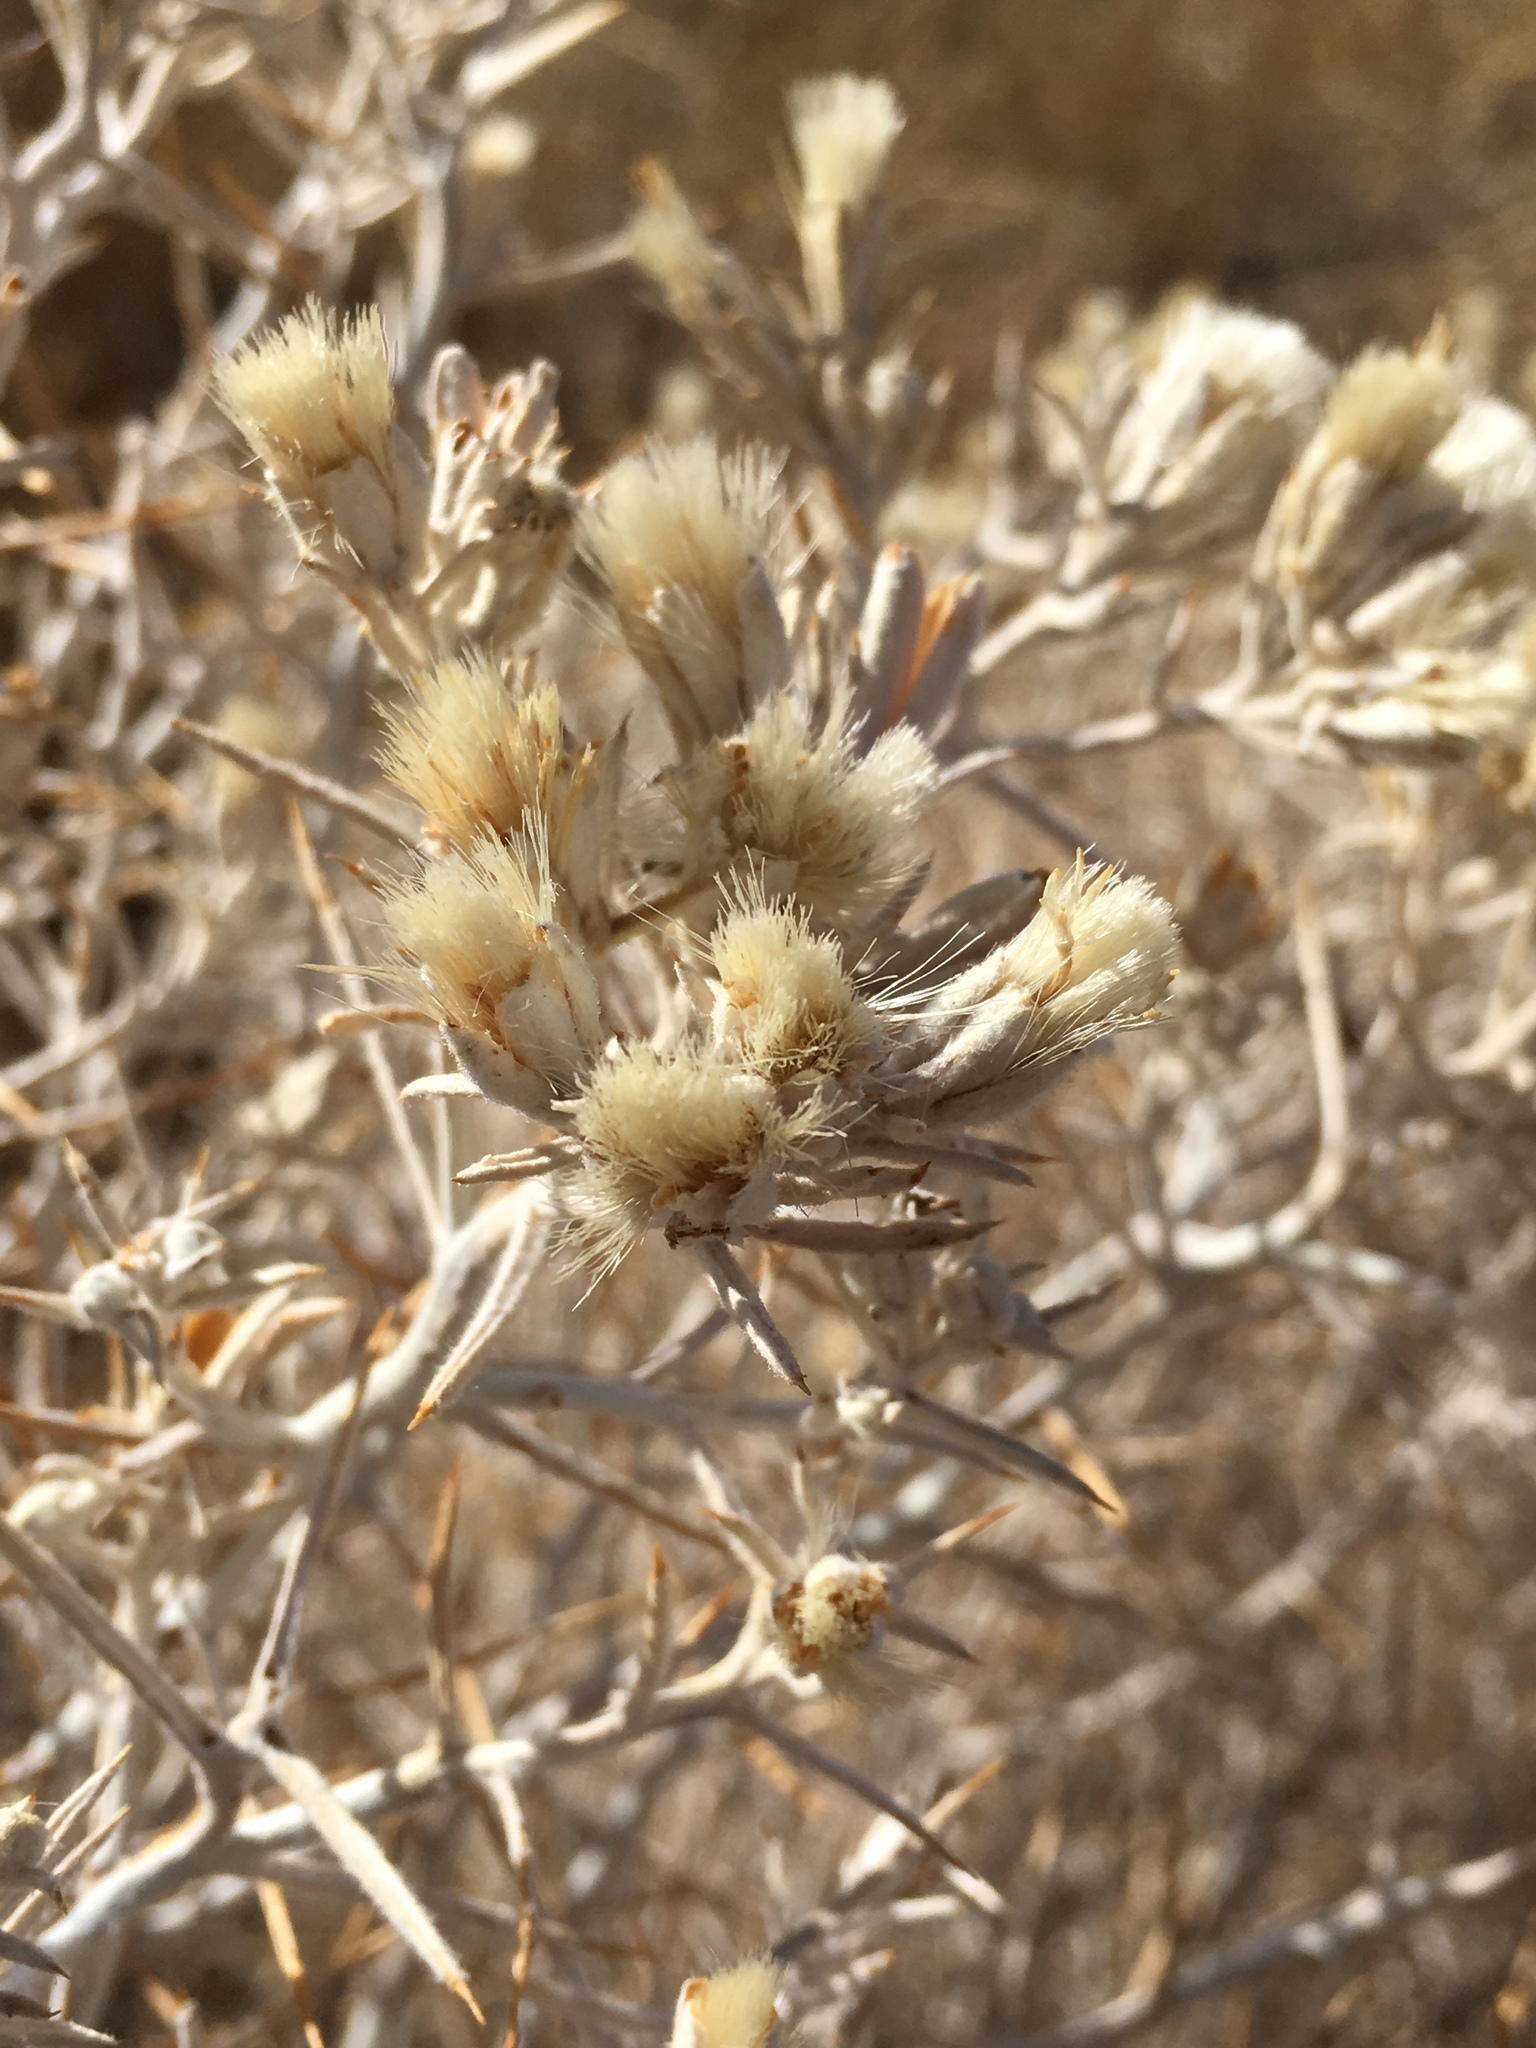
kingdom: Plantae
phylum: Tracheophyta
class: Magnoliopsida
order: Asterales
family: Asteraceae
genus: Tetradymia
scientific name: Tetradymia stenolepis
